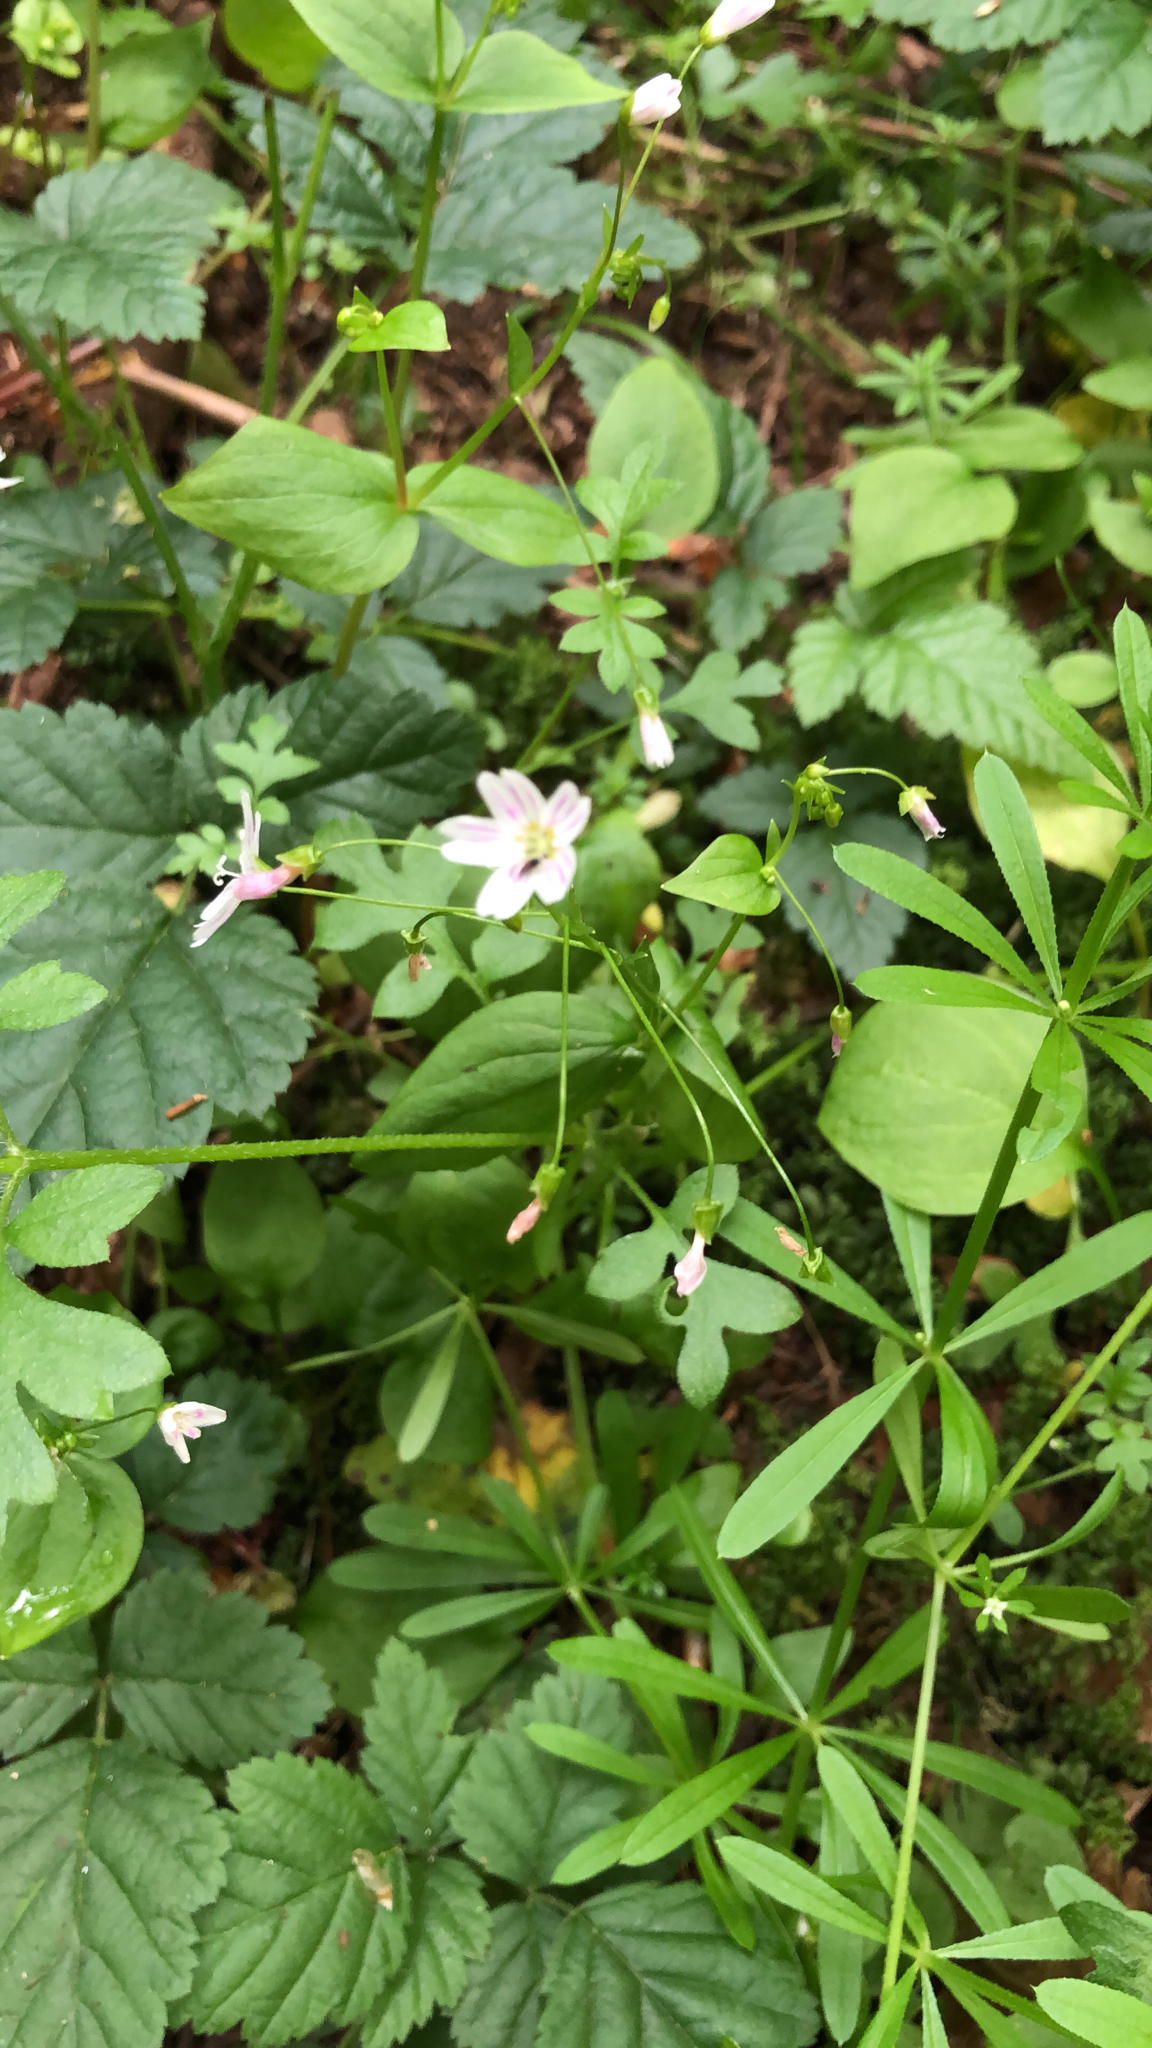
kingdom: Plantae
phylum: Tracheophyta
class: Magnoliopsida
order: Caryophyllales
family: Montiaceae
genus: Claytonia
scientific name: Claytonia sibirica
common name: Pink purslane
